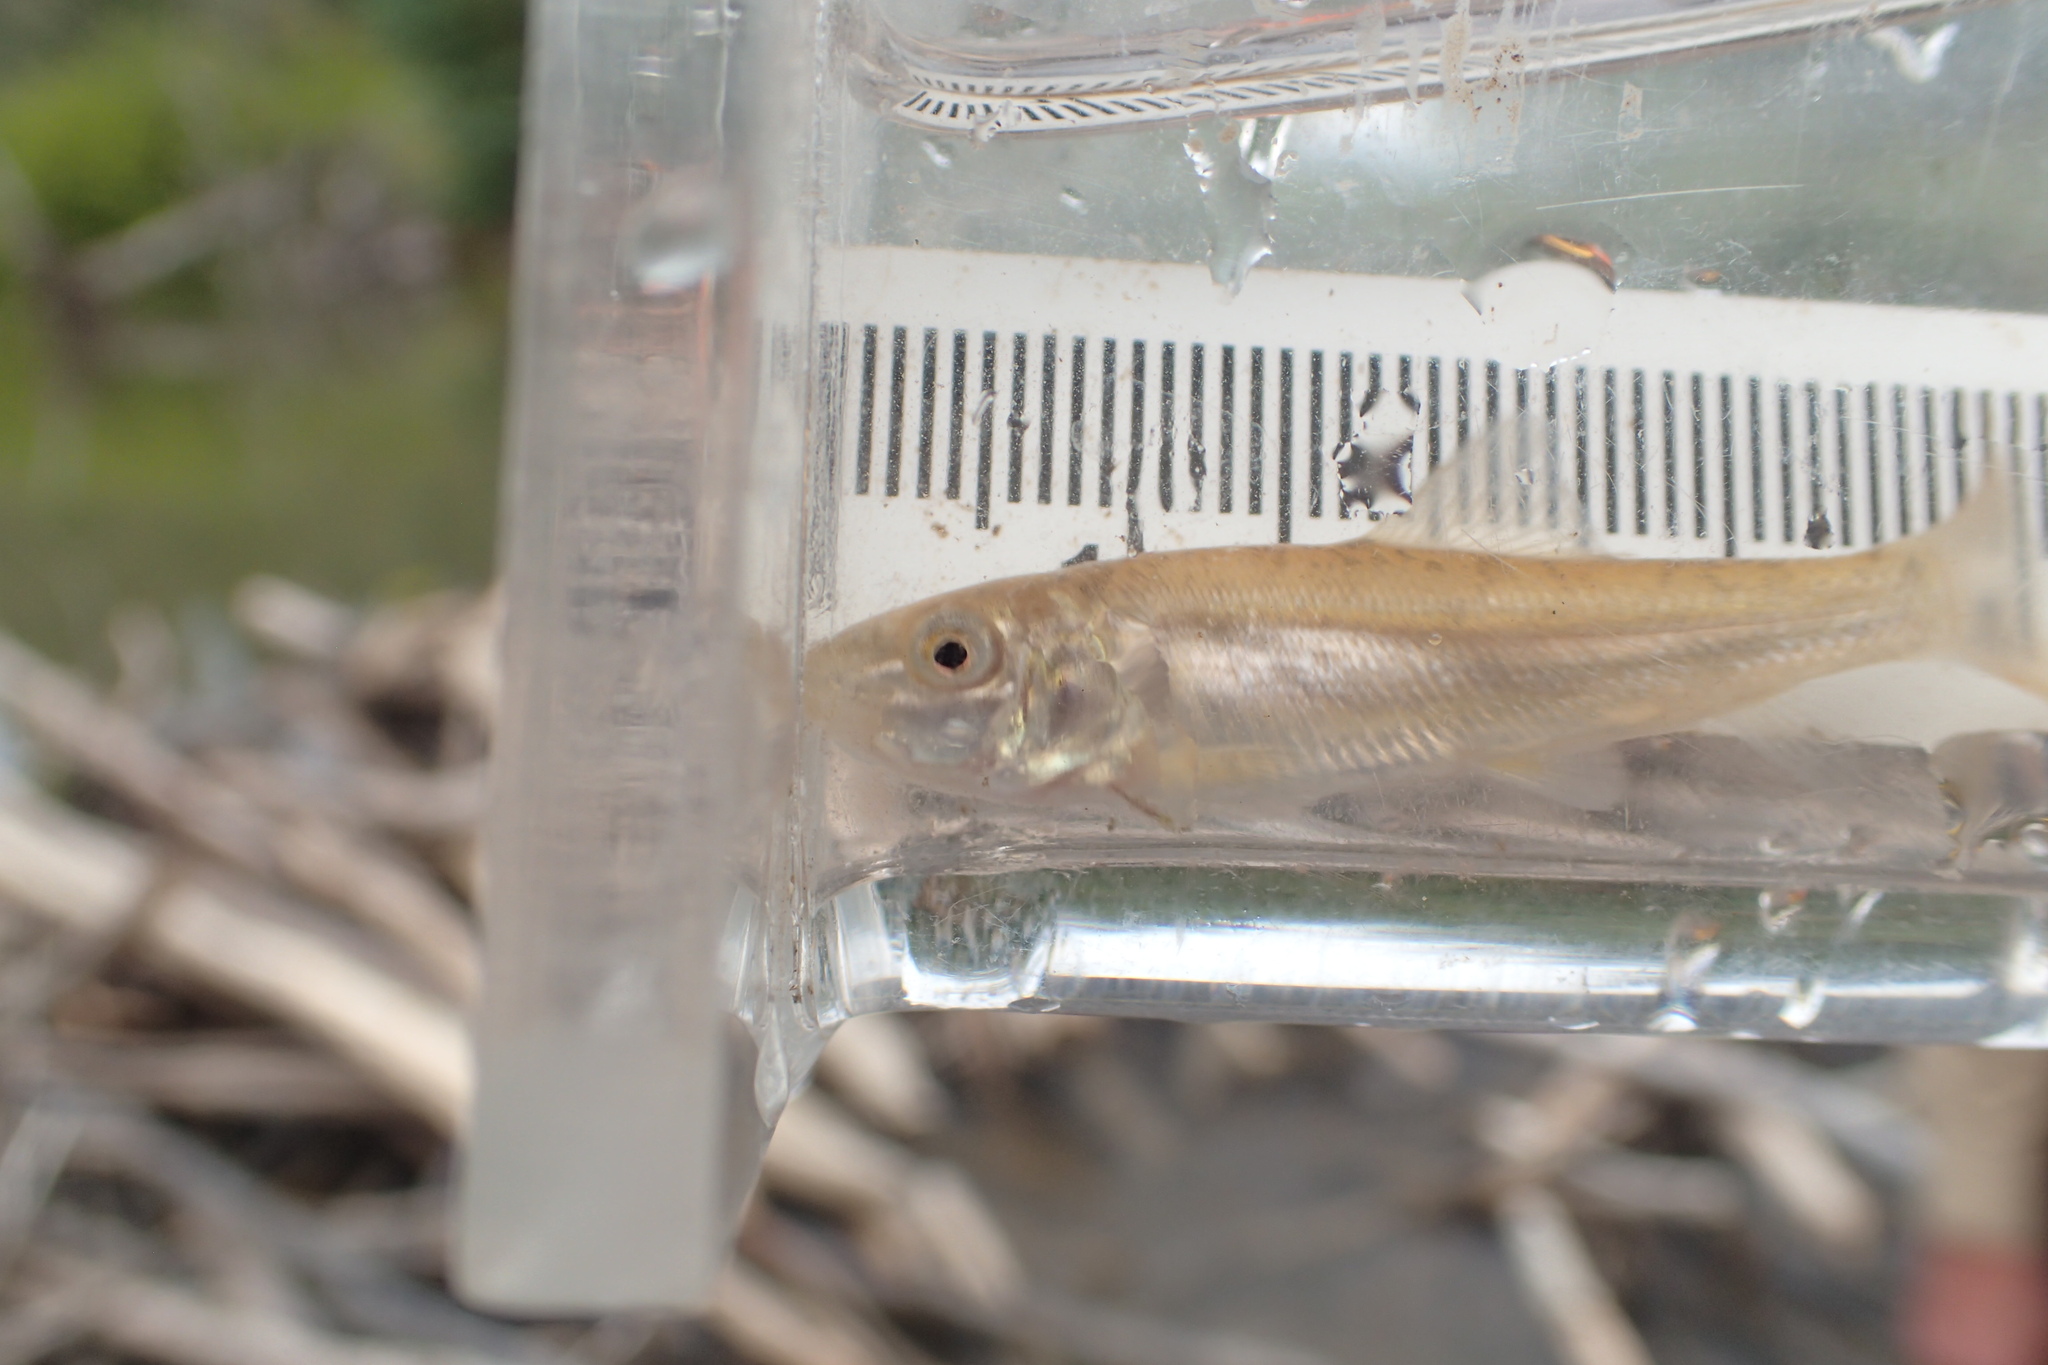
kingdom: Animalia
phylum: Chordata
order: Cypriniformes
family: Catostomidae
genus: Catostomus
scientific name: Catostomus commersonii
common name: White sucker
